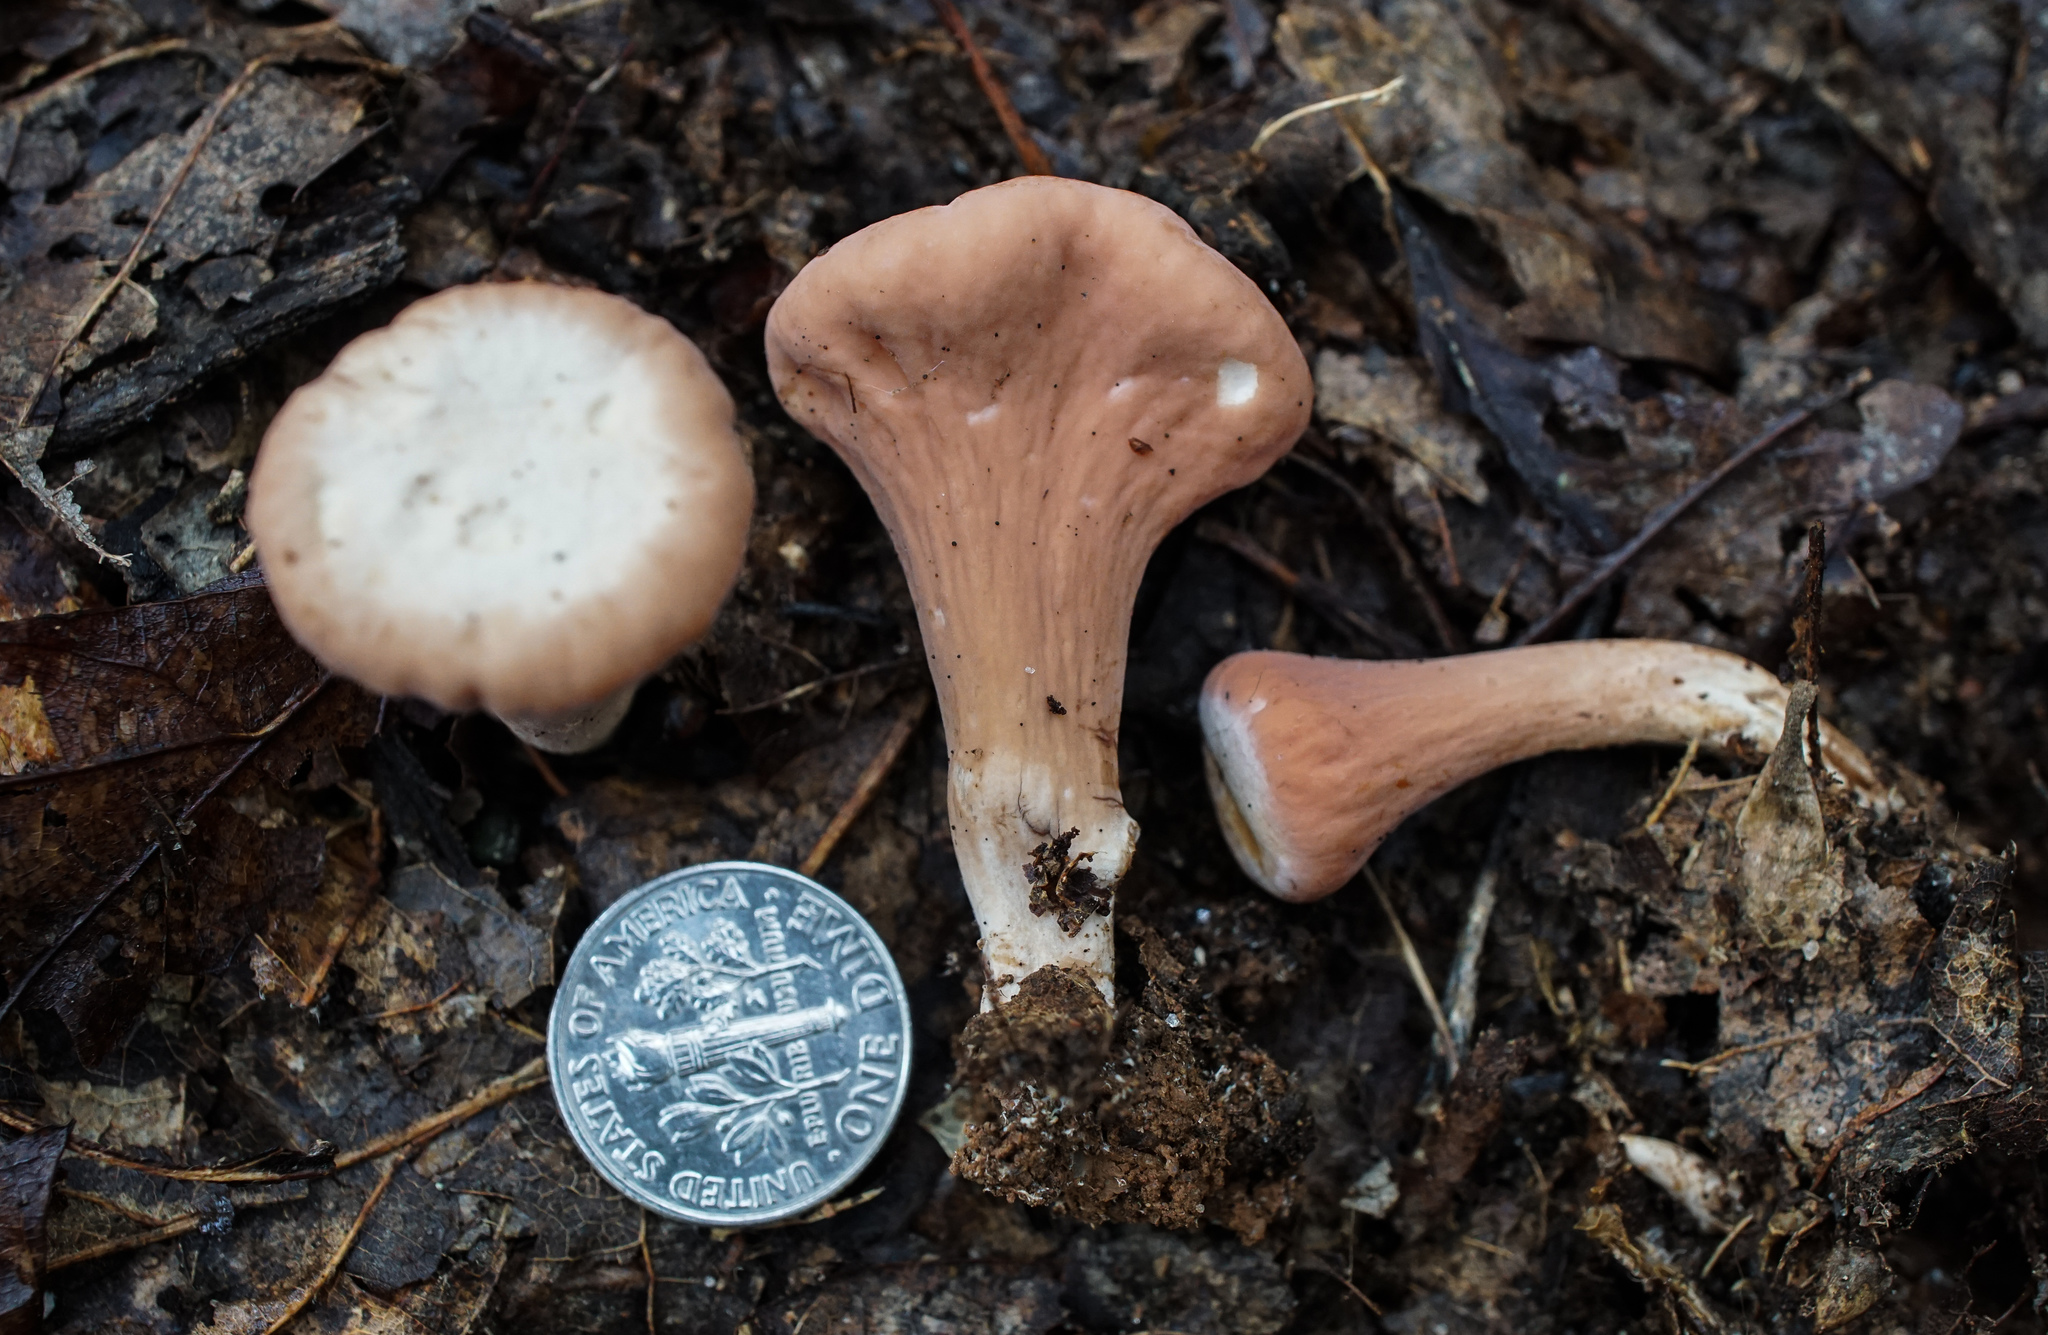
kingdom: Fungi
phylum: Basidiomycota
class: Agaricomycetes
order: Gomphales
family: Clavariadelphaceae
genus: Clavariadelphus
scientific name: Clavariadelphus americanus
